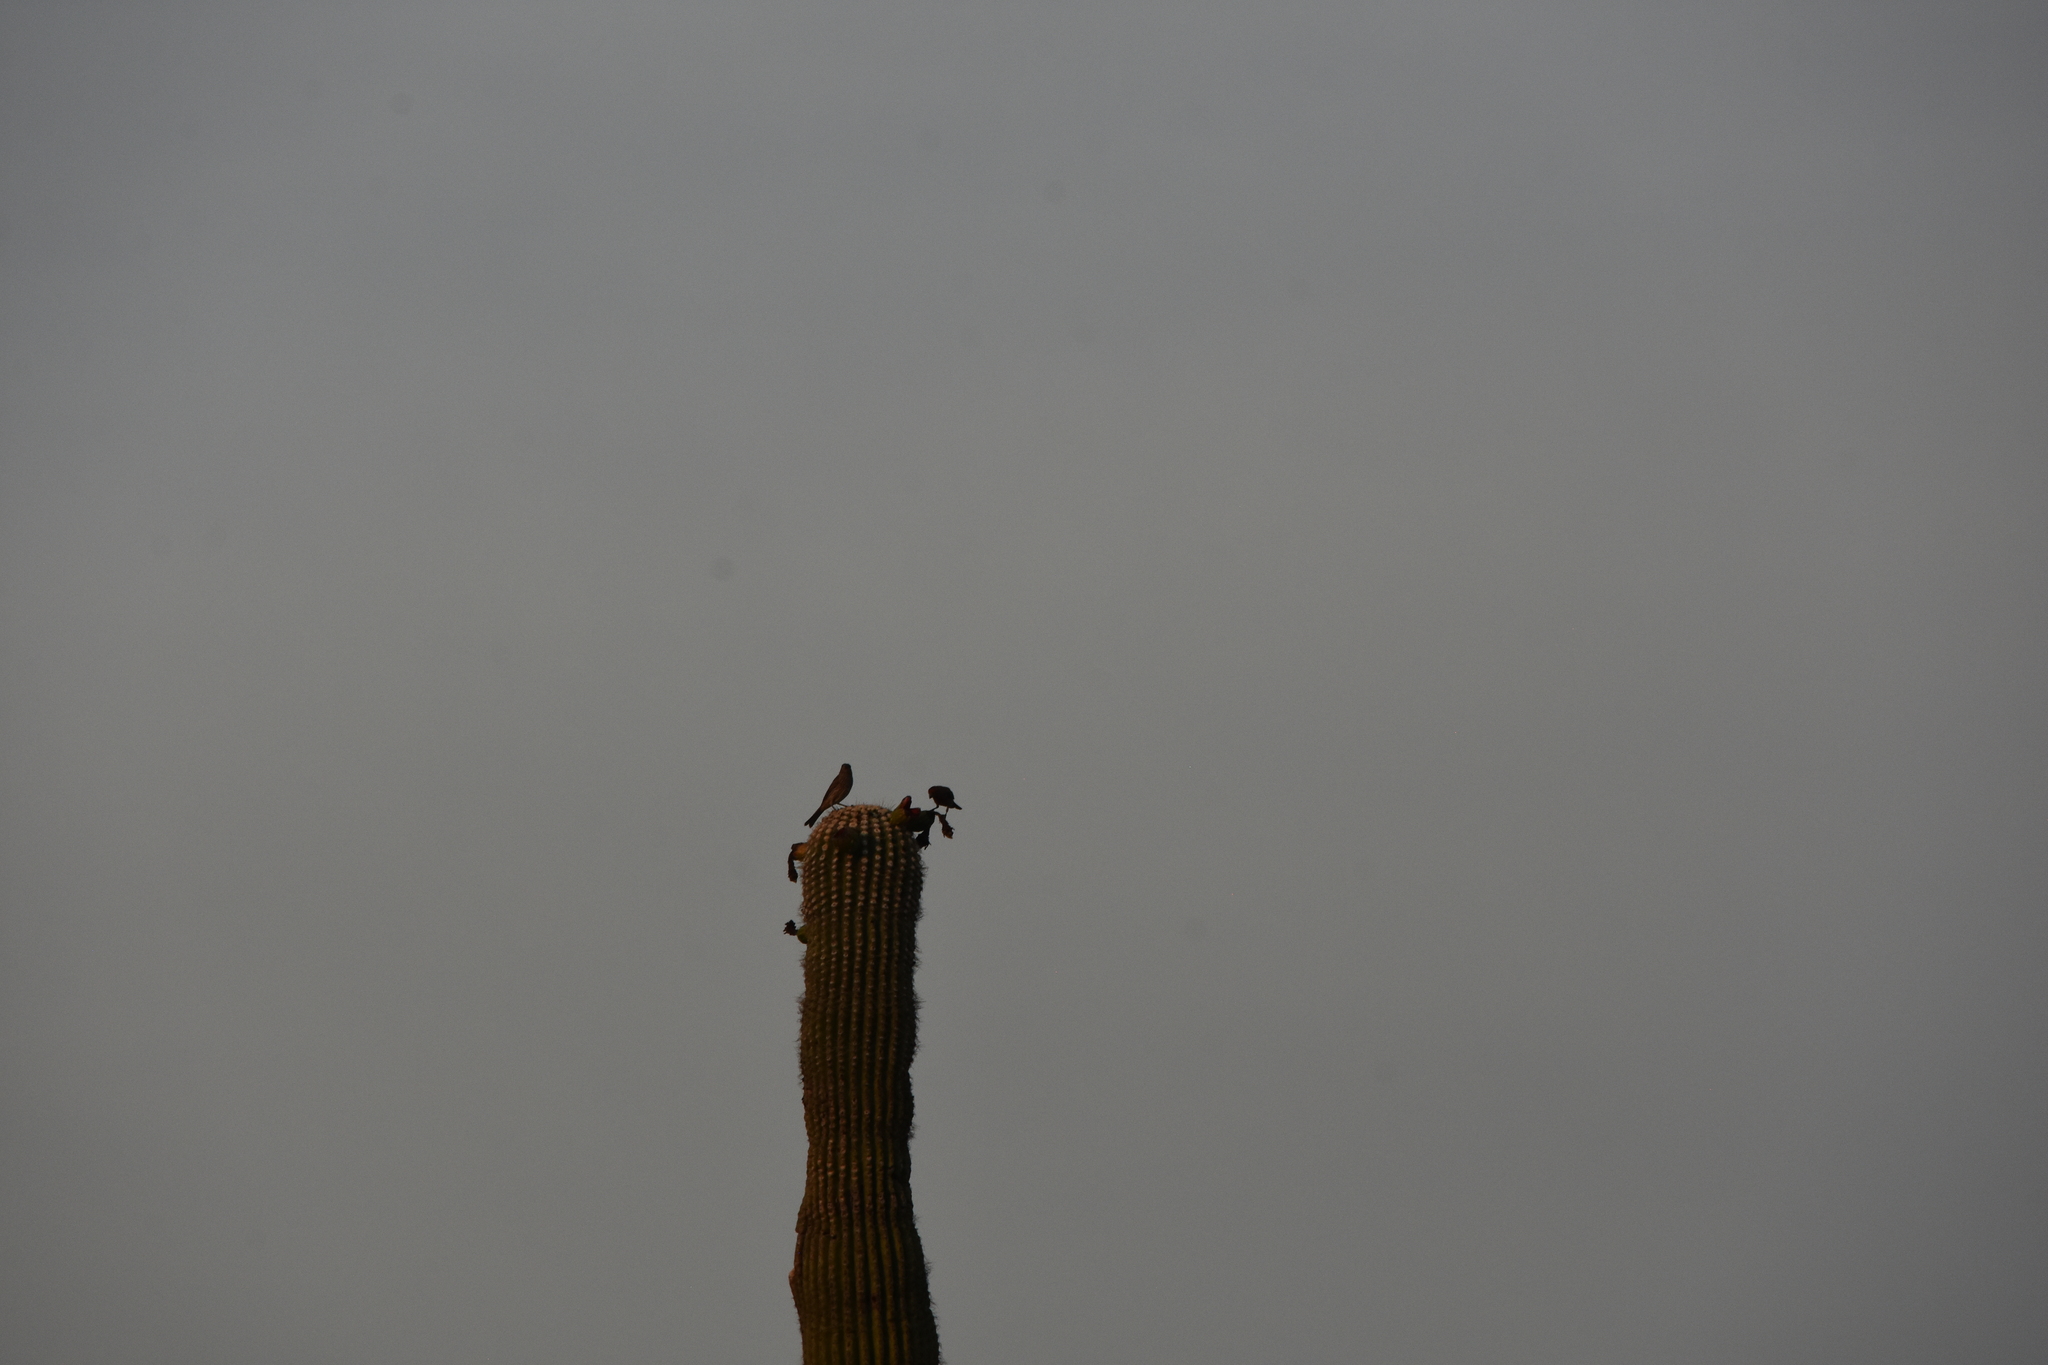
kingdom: Animalia
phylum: Chordata
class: Aves
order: Passeriformes
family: Fringillidae
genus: Haemorhous
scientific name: Haemorhous mexicanus
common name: House finch
